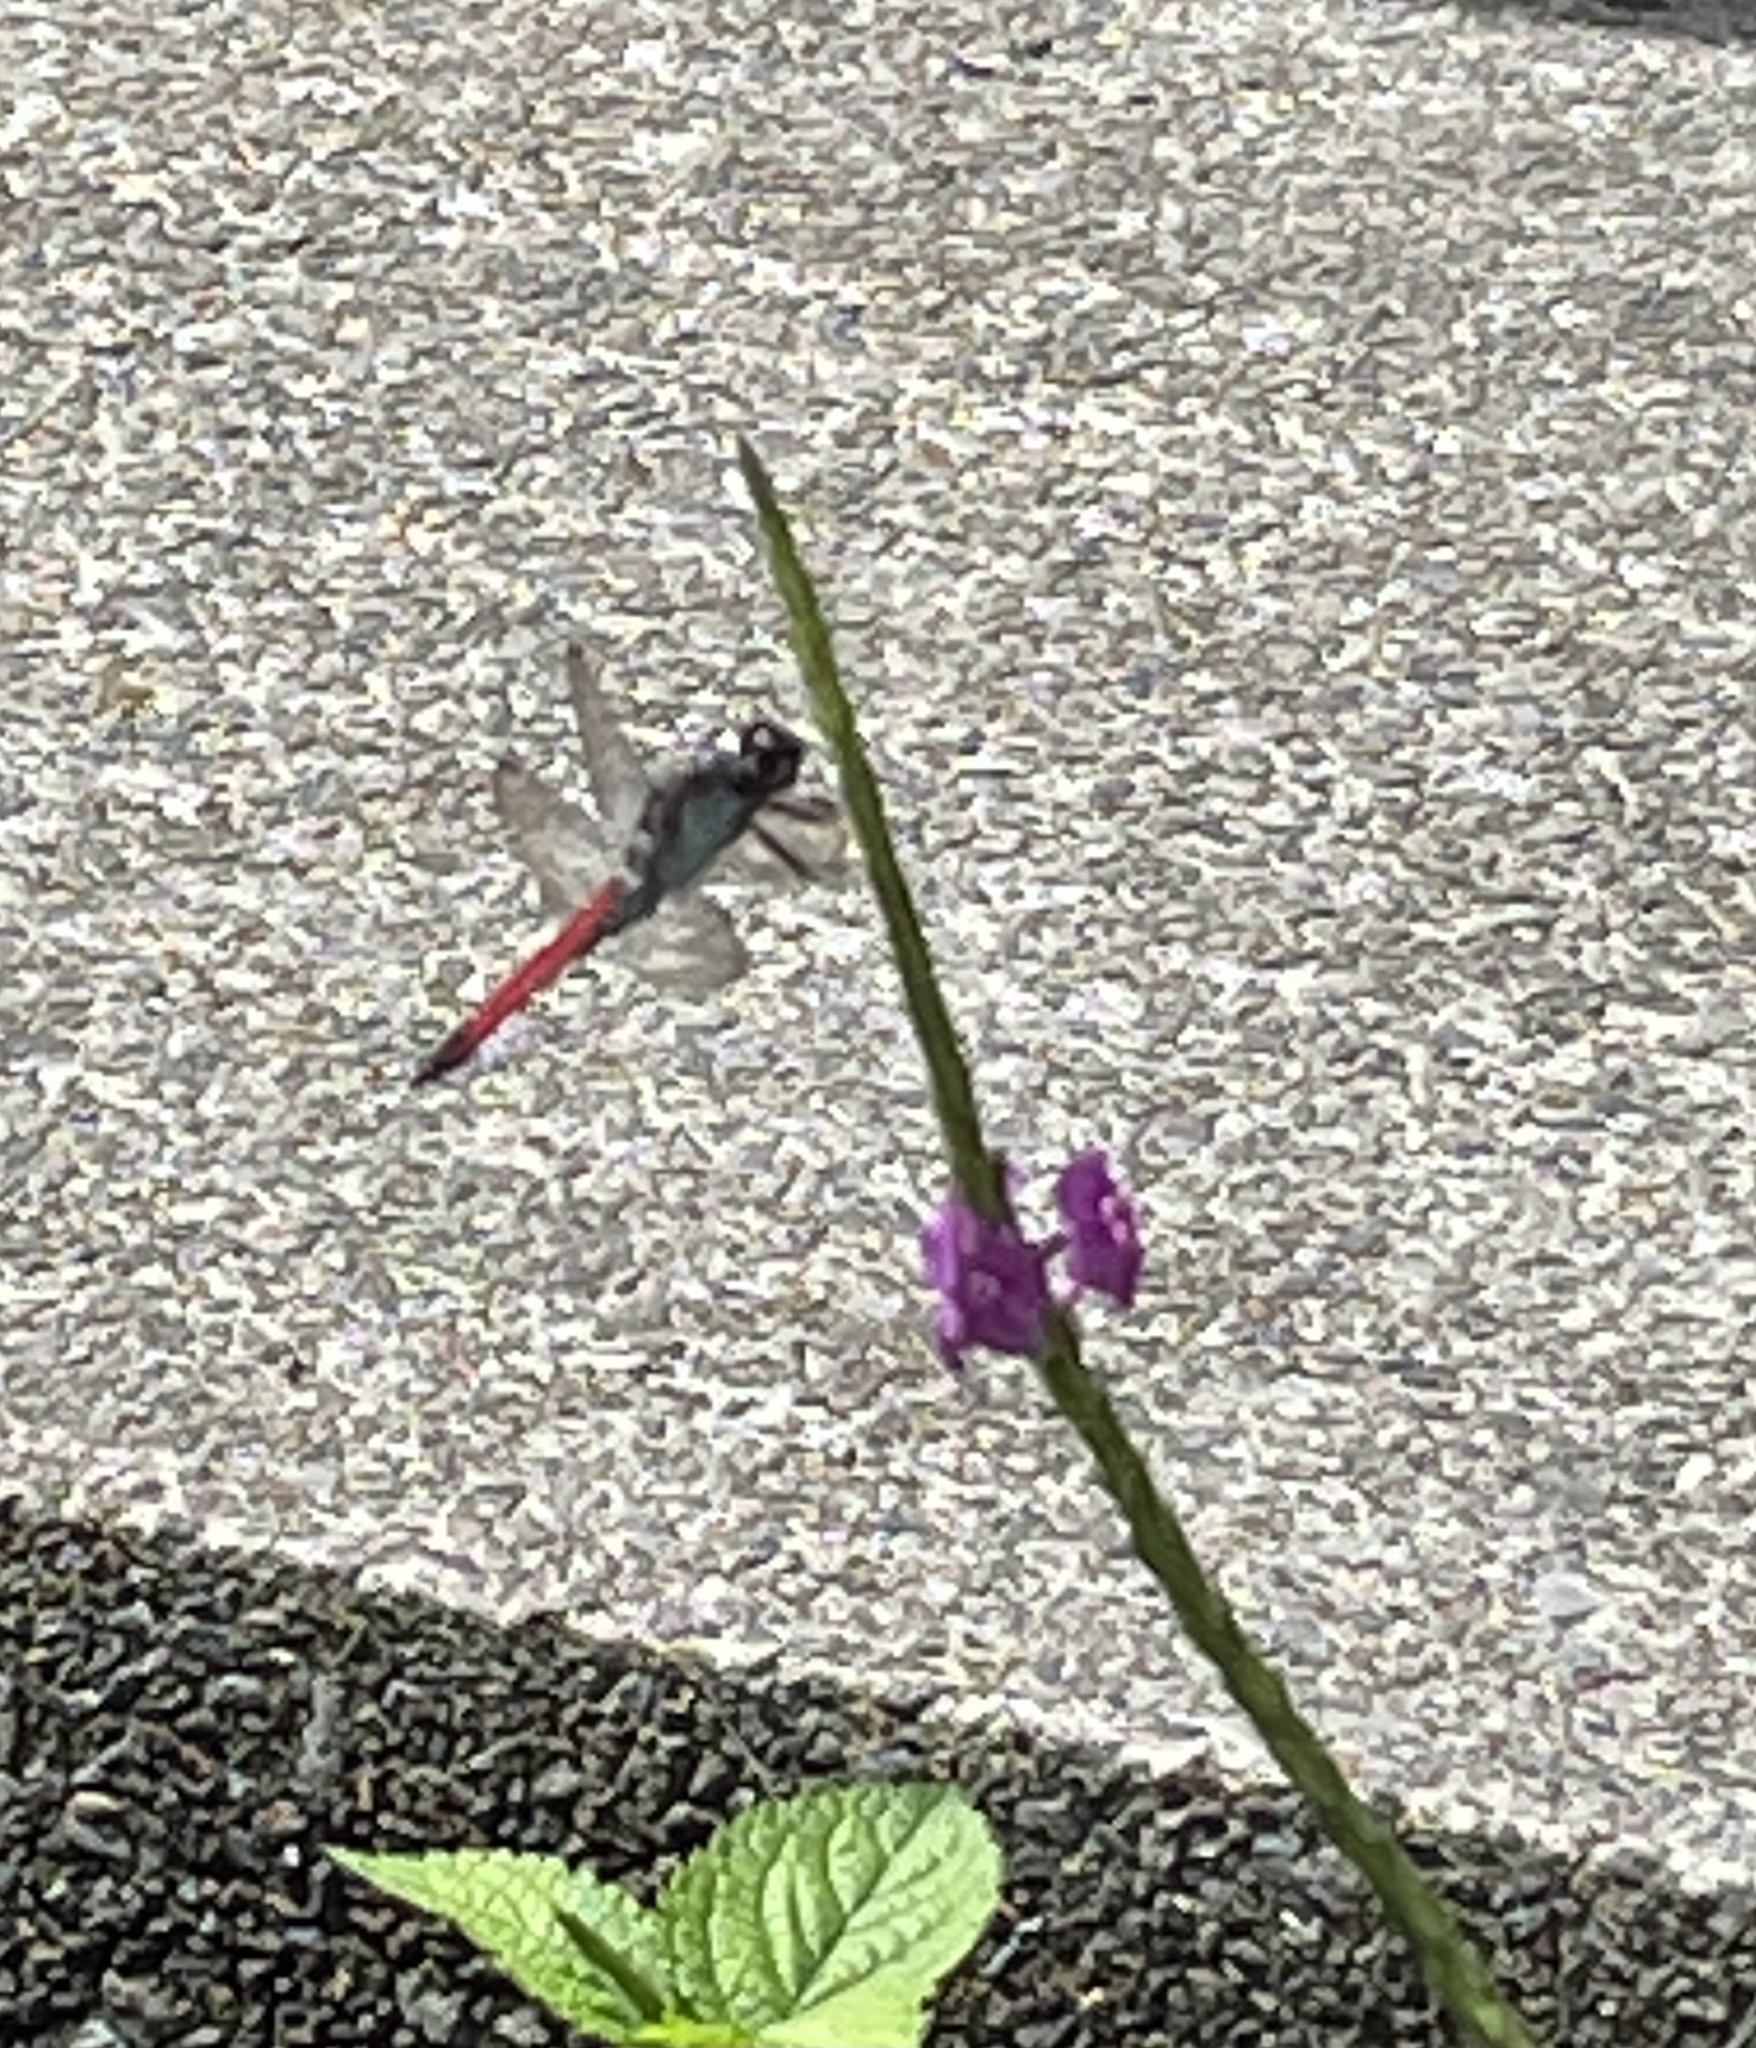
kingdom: Animalia
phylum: Arthropoda
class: Insecta
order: Odonata
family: Libellulidae
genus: Libellula
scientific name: Libellula herculea
